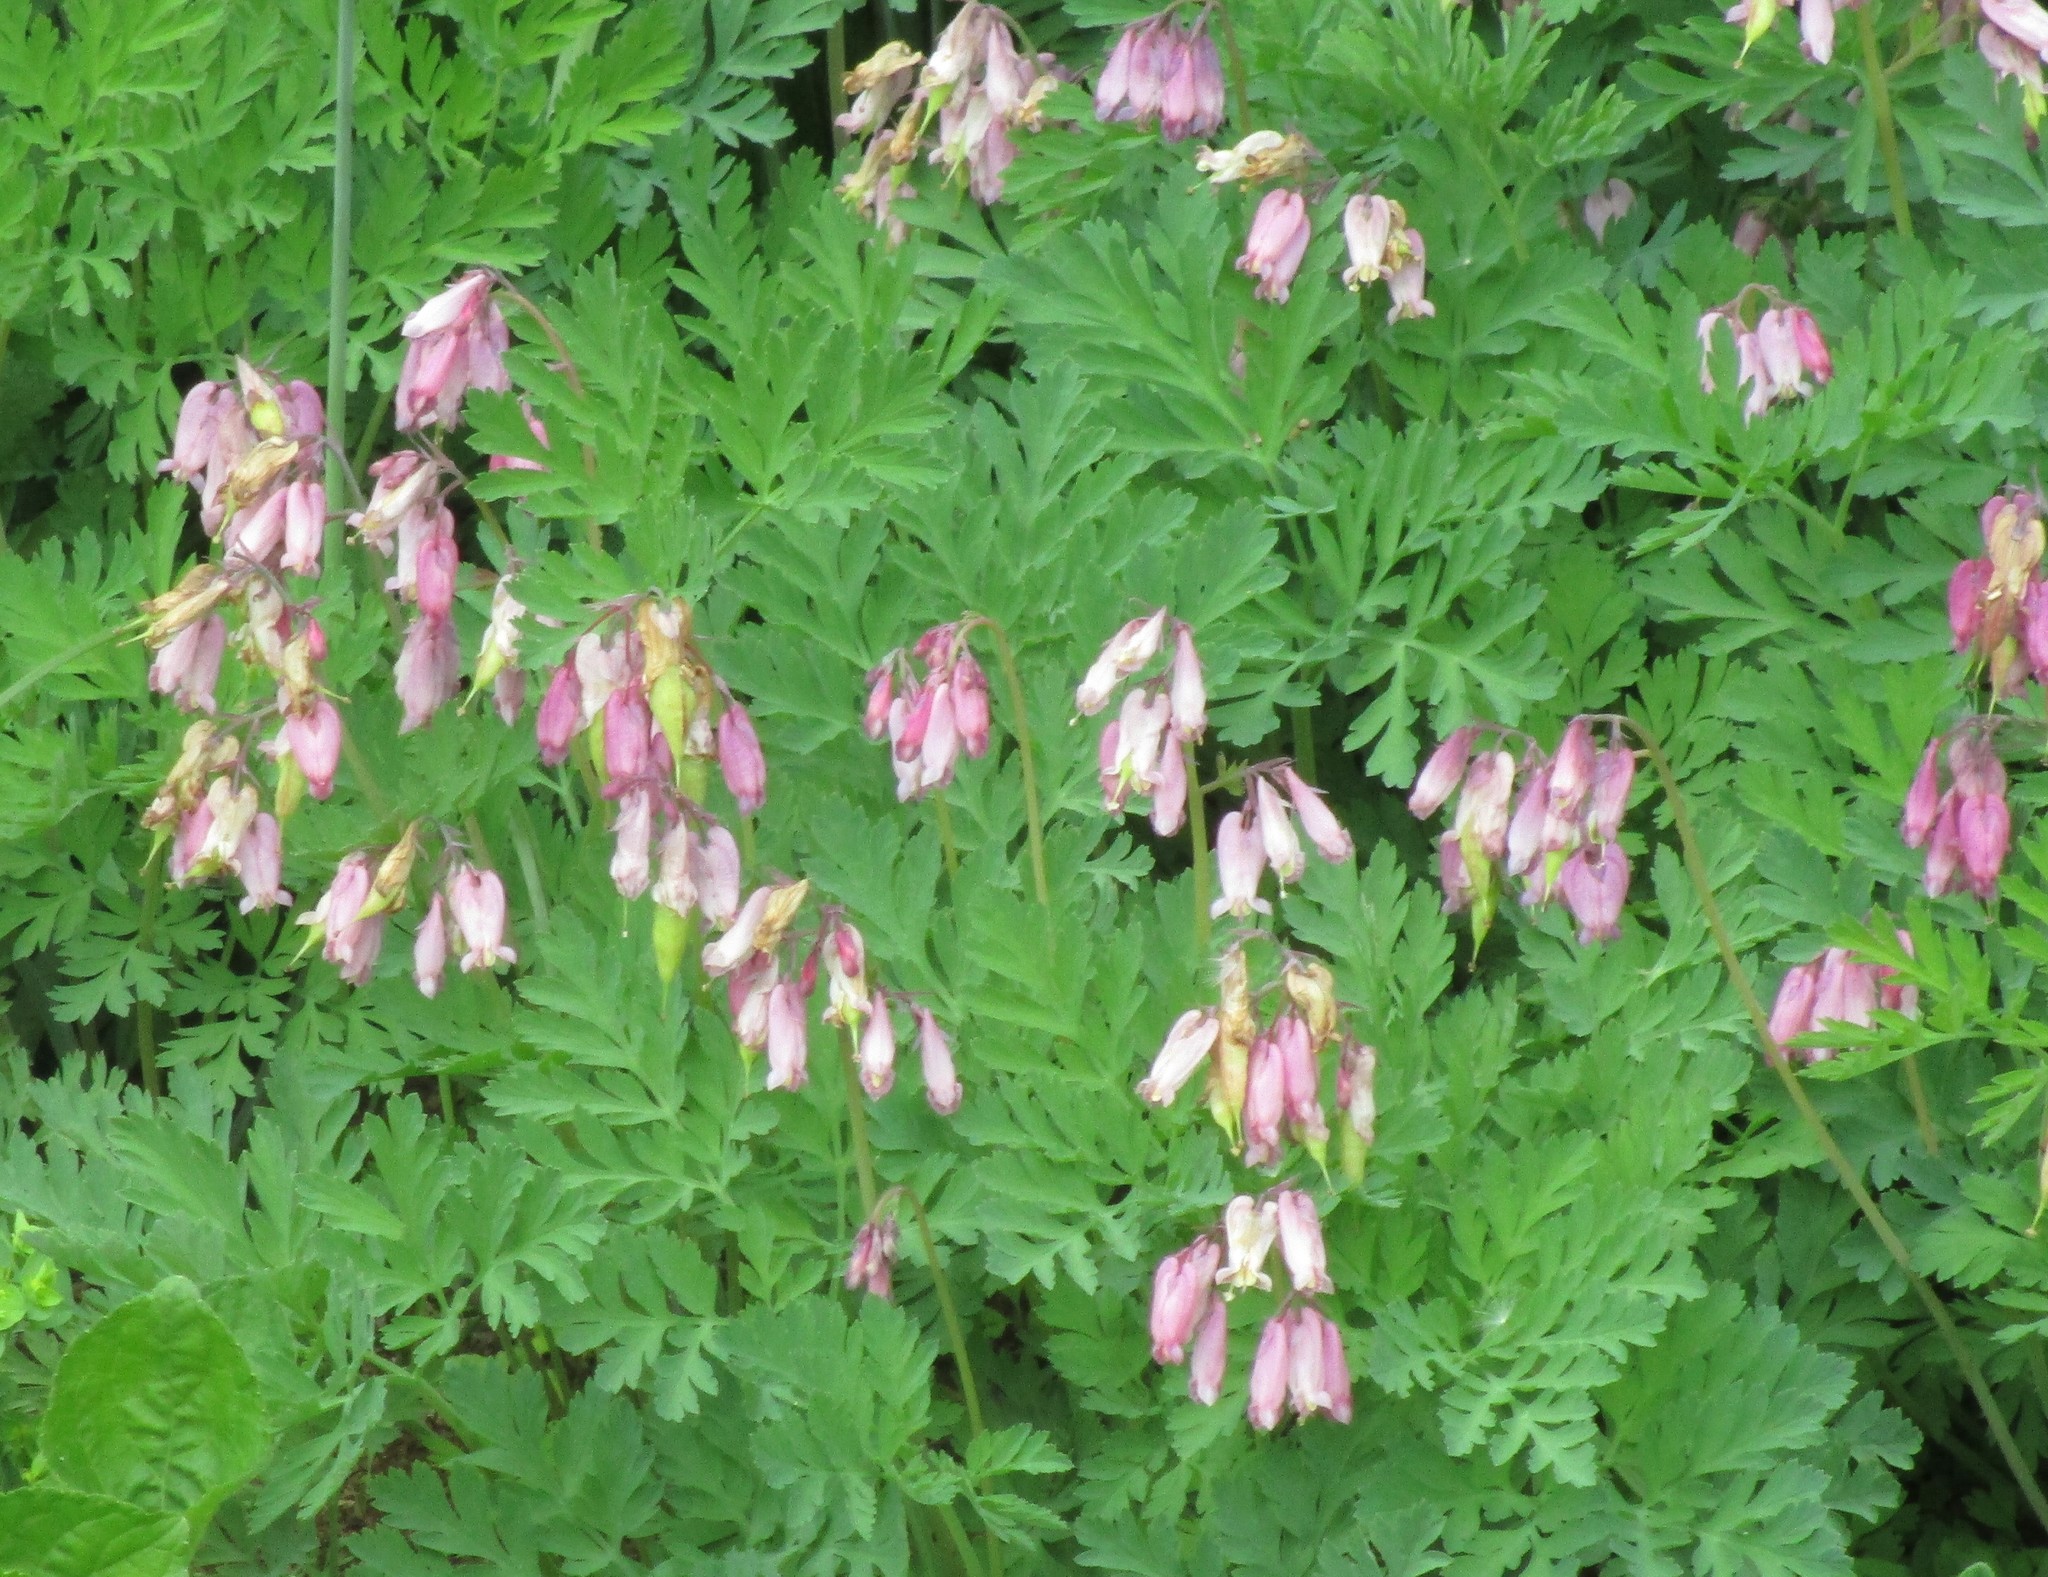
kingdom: Plantae
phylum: Tracheophyta
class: Magnoliopsida
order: Ranunculales
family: Papaveraceae
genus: Dicentra
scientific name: Dicentra formosa
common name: Bleeding-heart
